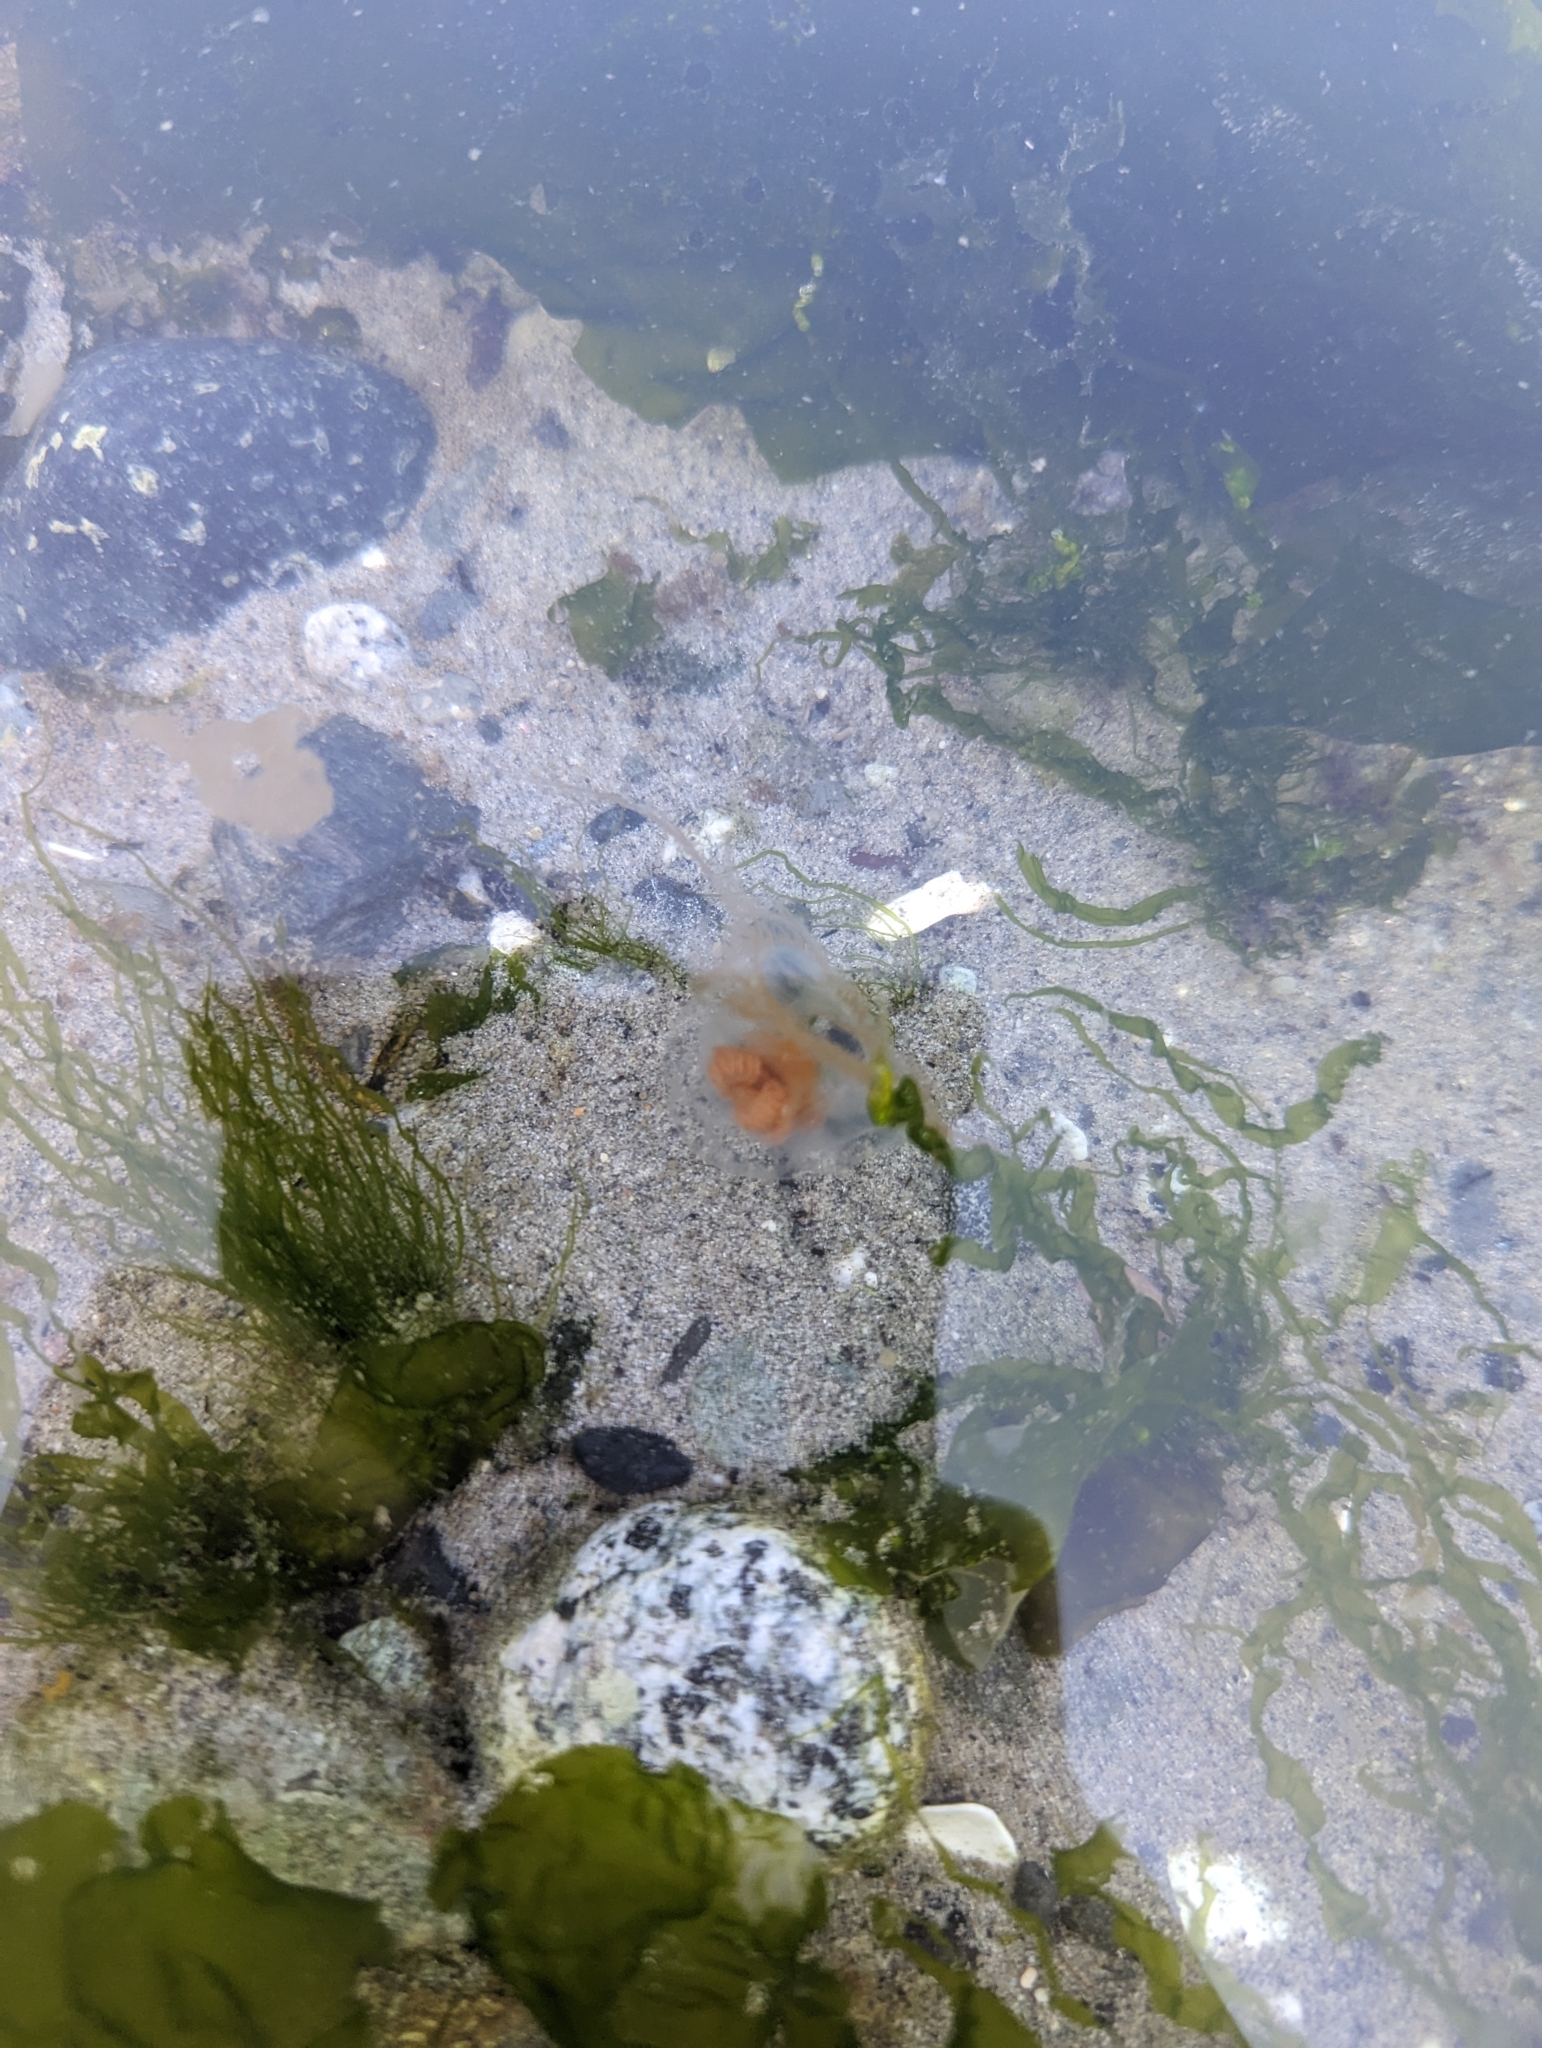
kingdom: Animalia
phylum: Cnidaria
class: Hydrozoa
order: Anthoathecata
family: Pandeidae
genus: Neoturris
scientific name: Neoturris breviconis
